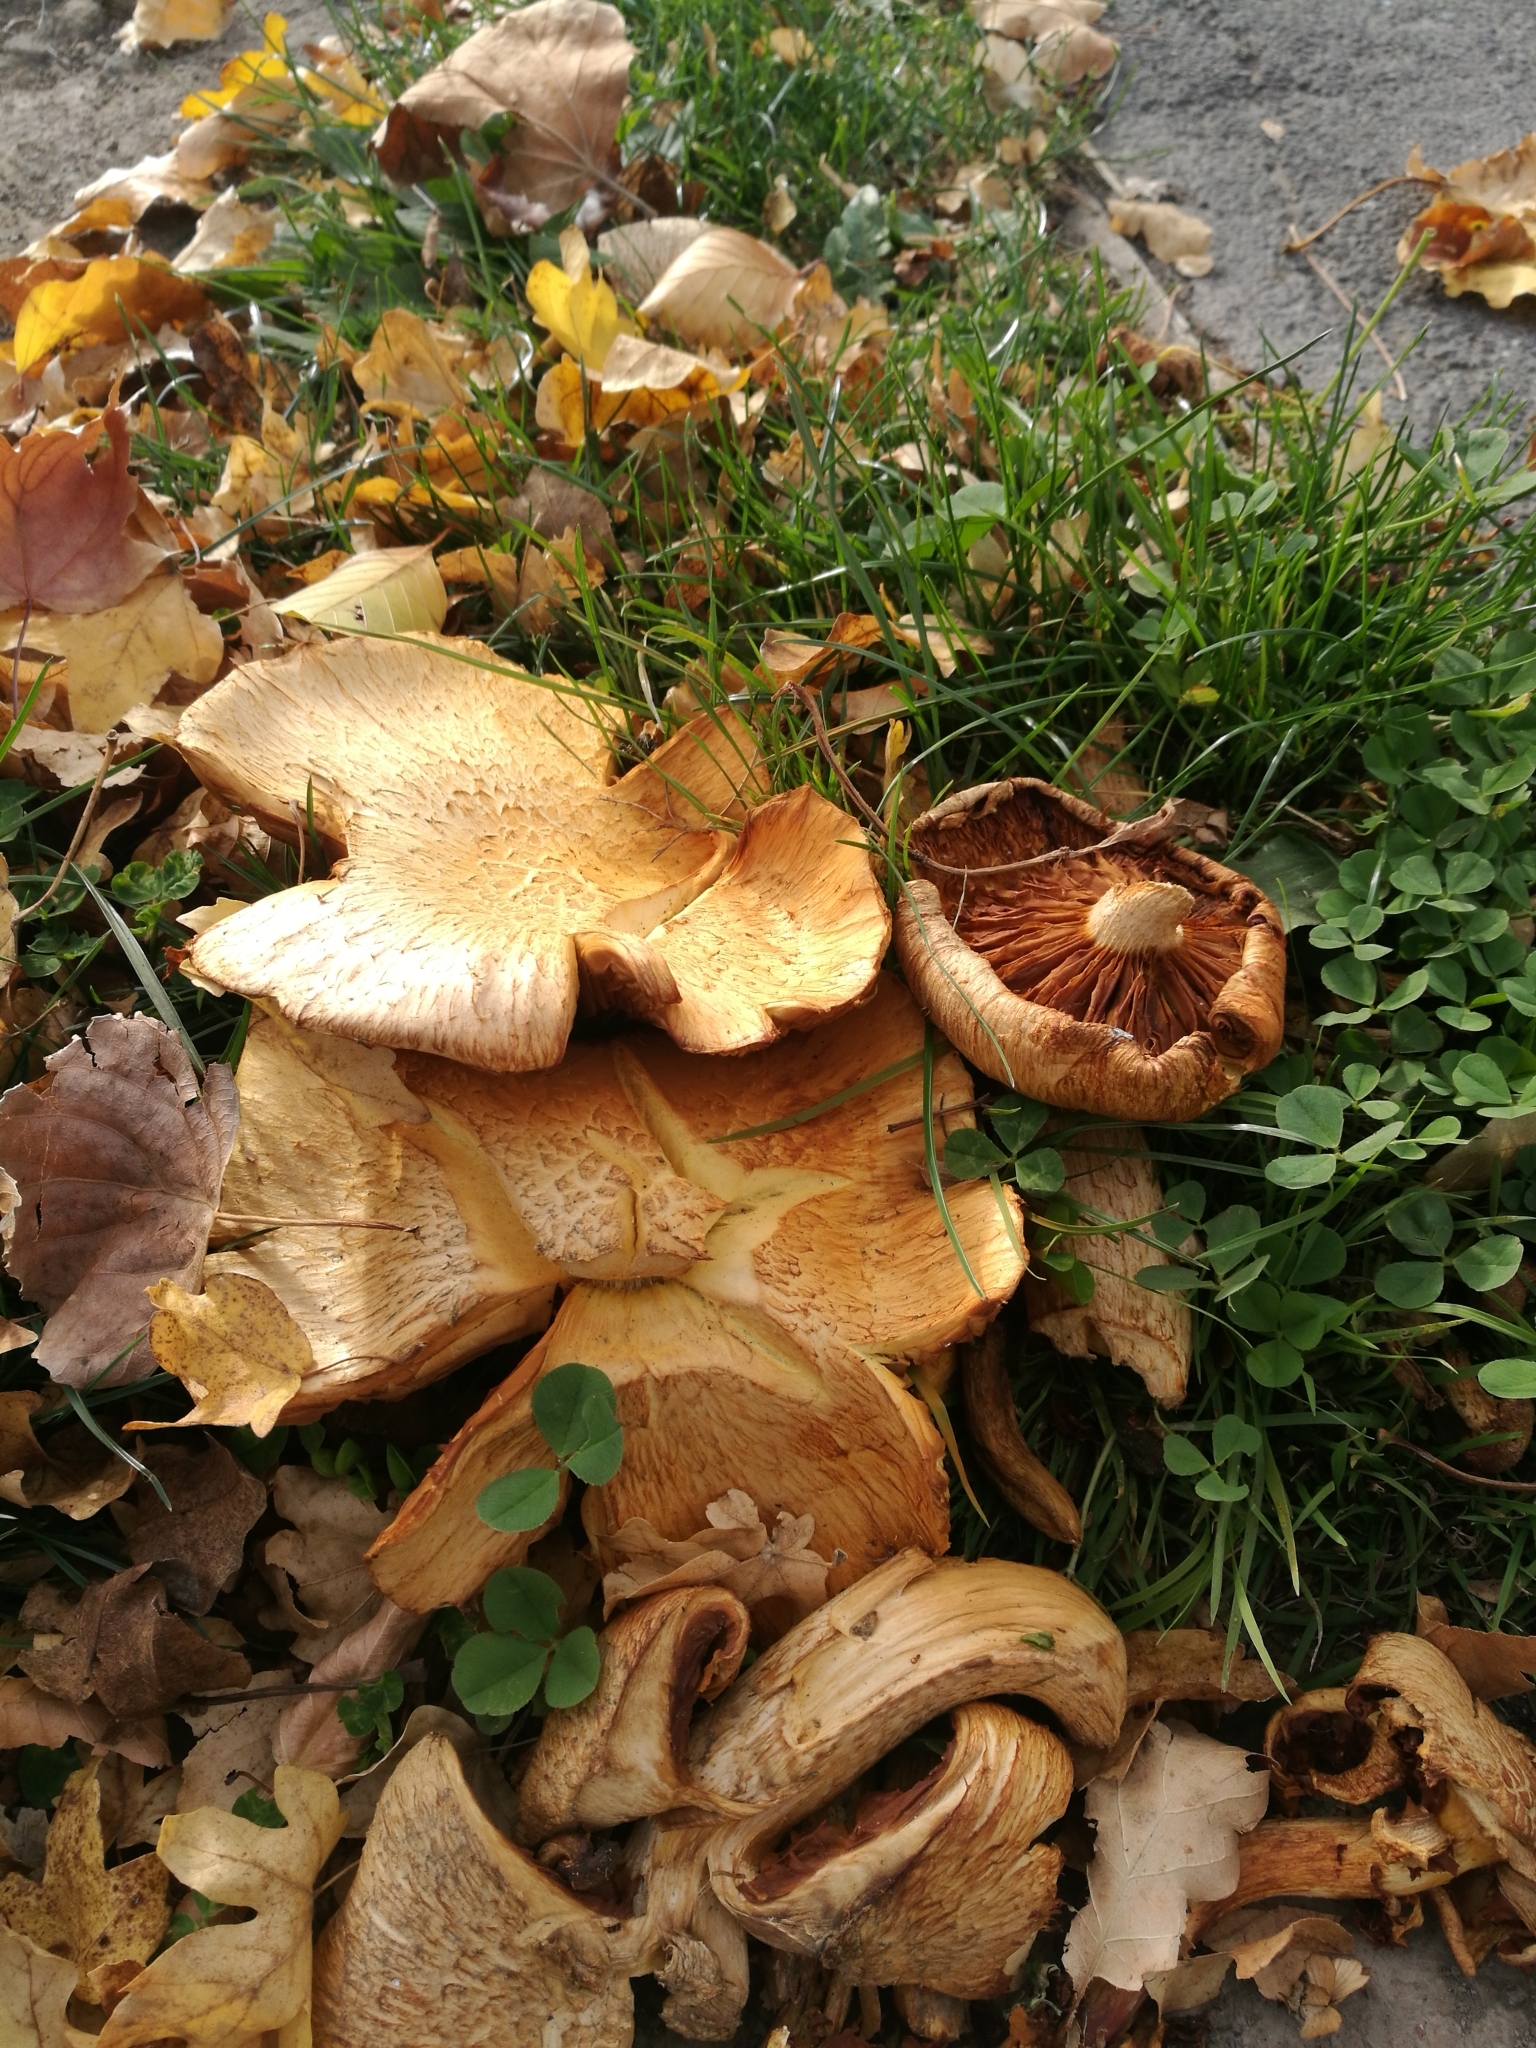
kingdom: Fungi
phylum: Basidiomycota
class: Agaricomycetes
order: Agaricales
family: Hymenogastraceae
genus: Gymnopilus
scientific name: Gymnopilus junonius
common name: Spectacular rustgill
